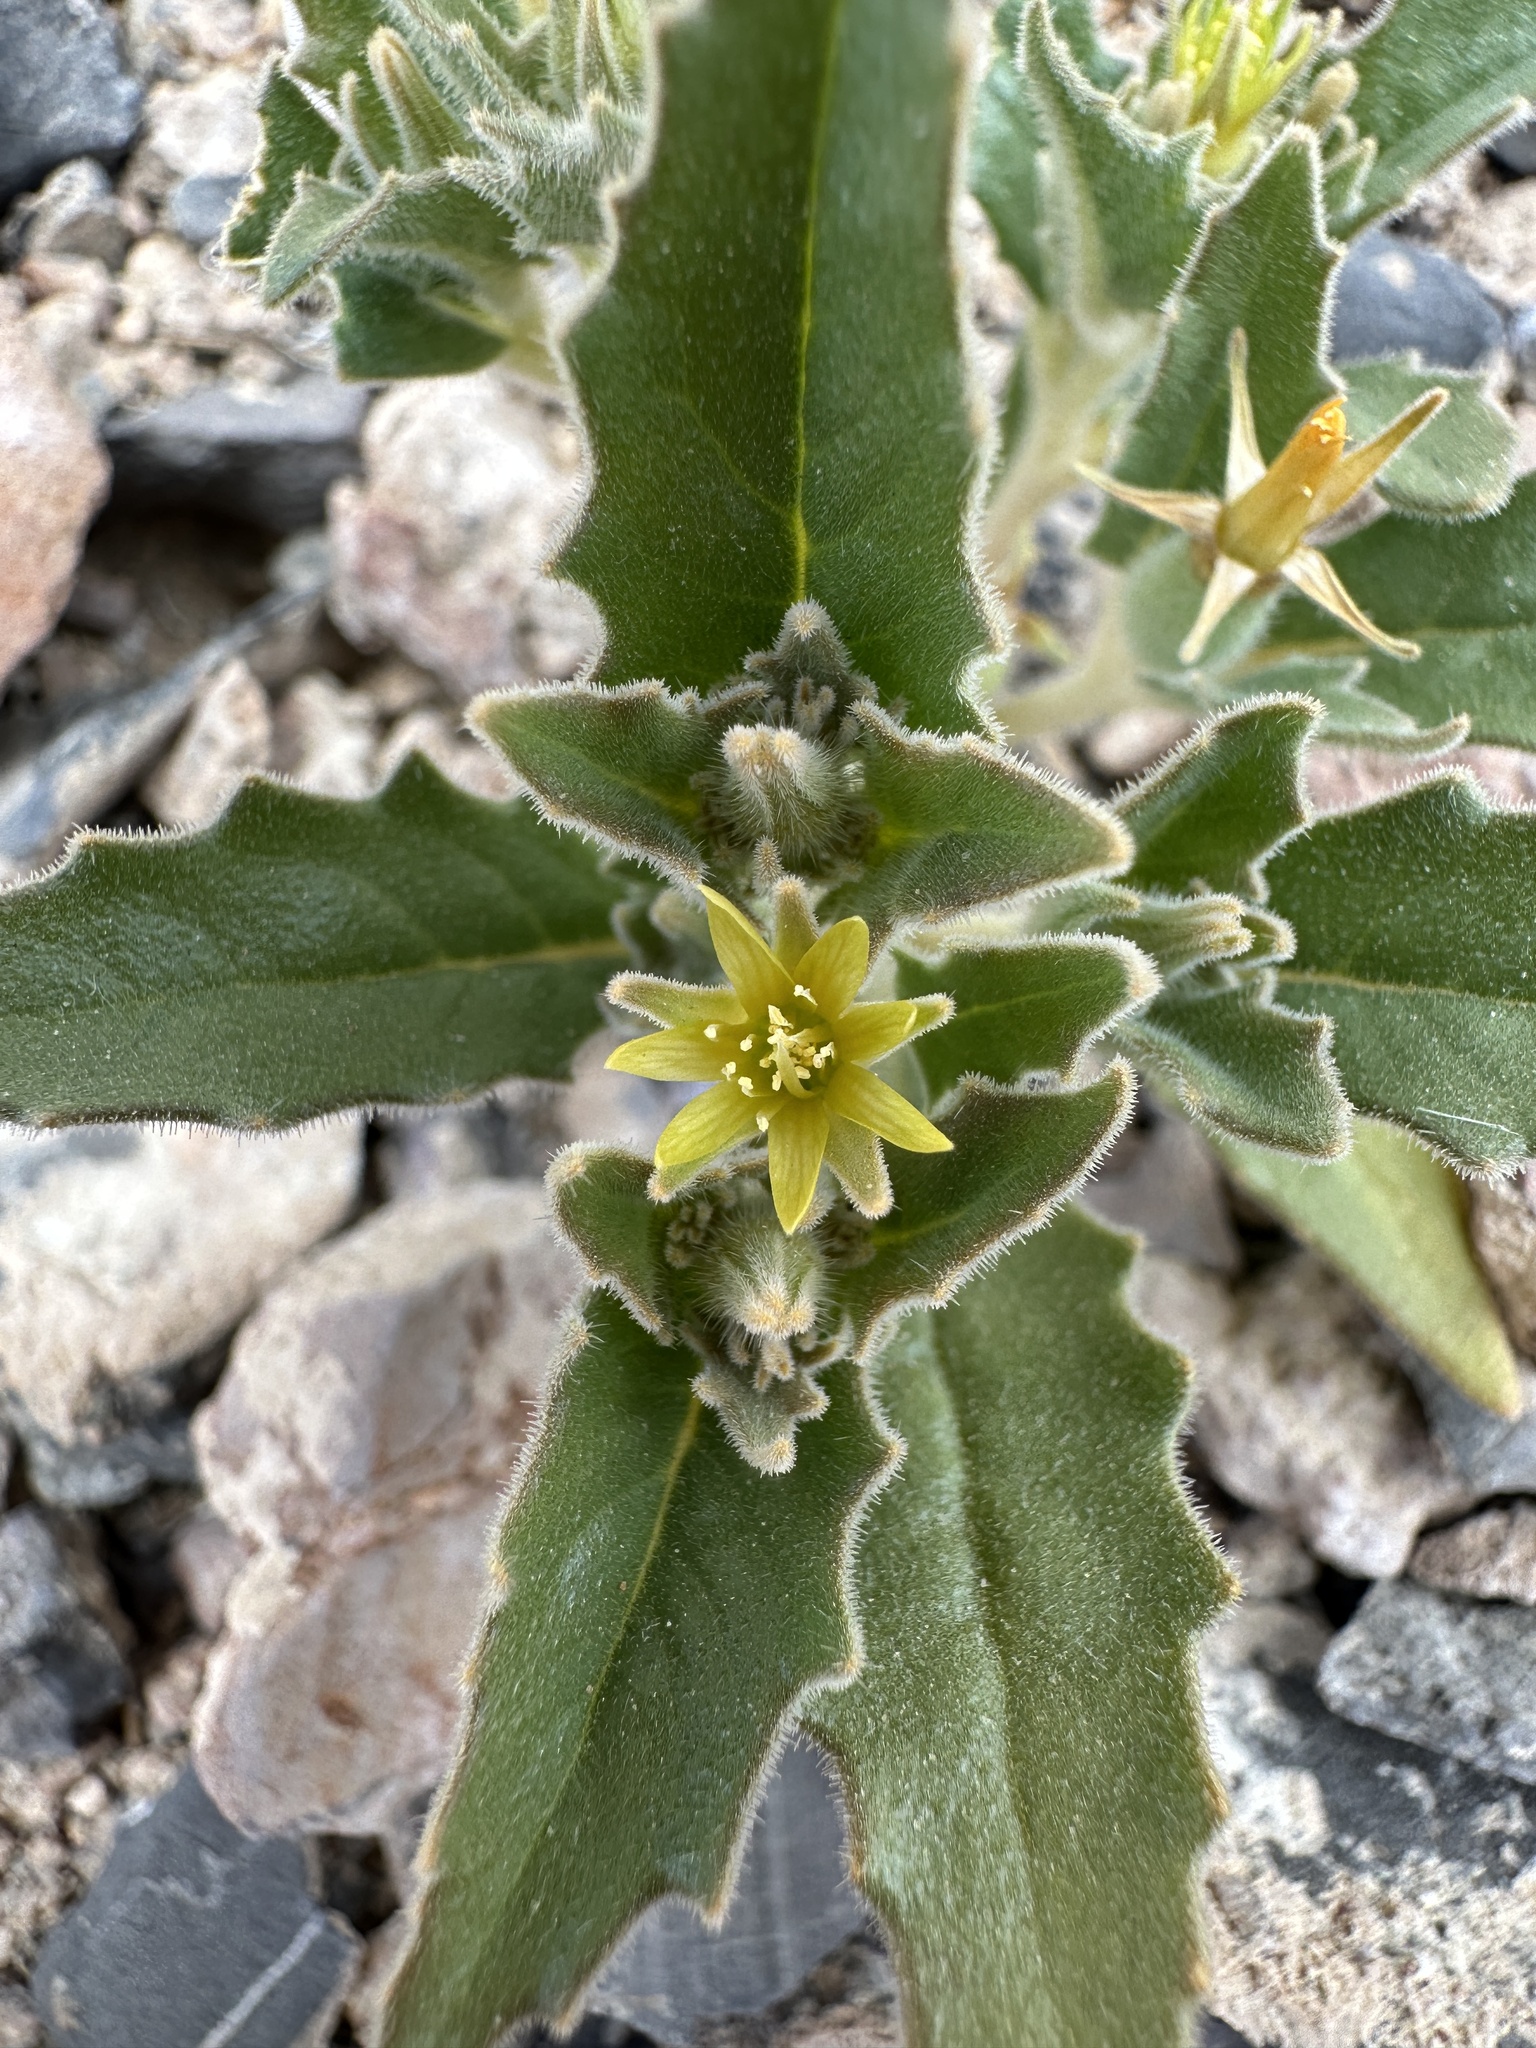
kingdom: Plantae
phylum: Tracheophyta
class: Magnoliopsida
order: Cornales
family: Loasaceae
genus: Mentzelia
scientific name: Mentzelia reflexa
